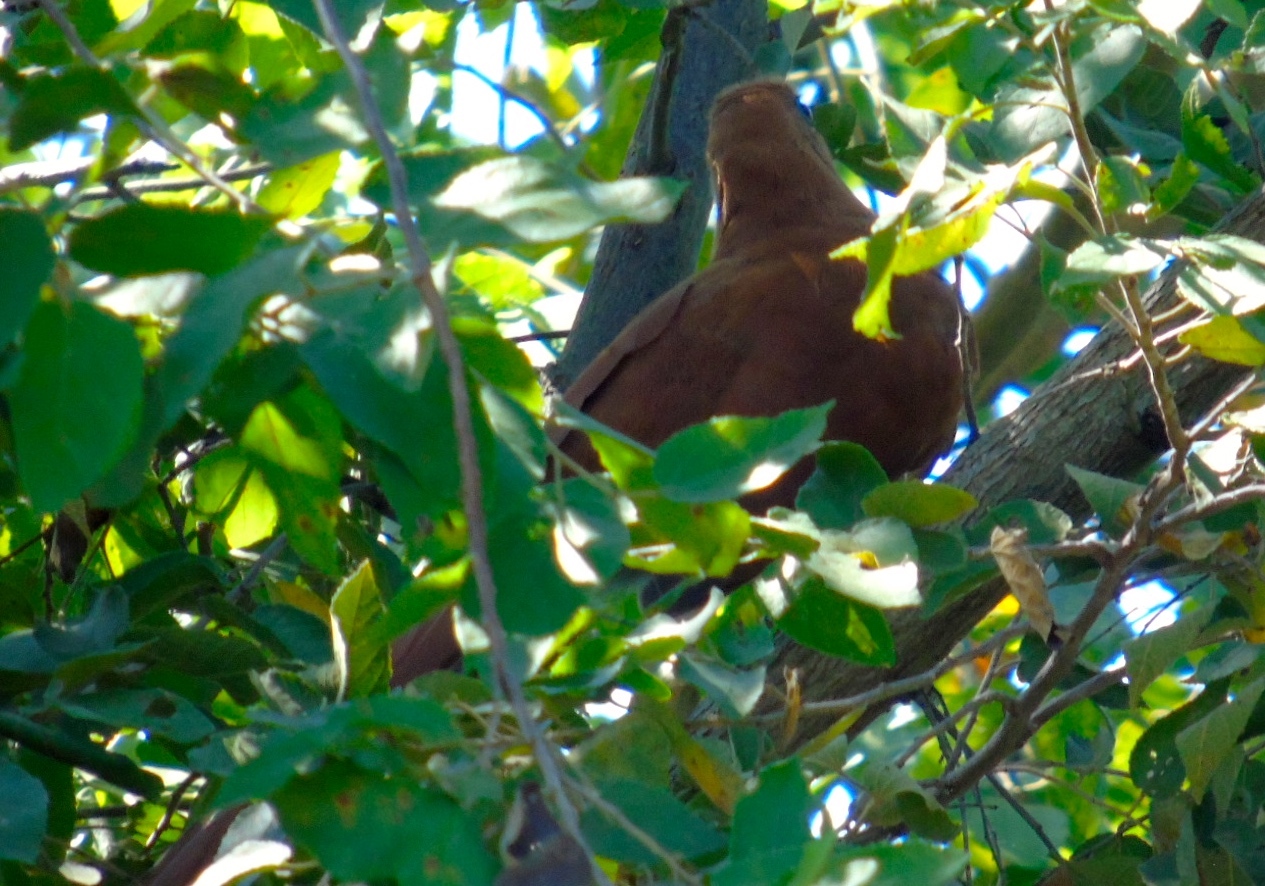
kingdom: Animalia
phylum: Chordata
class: Aves
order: Cuculiformes
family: Cuculidae
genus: Piaya
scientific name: Piaya cayana
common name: Squirrel cuckoo
